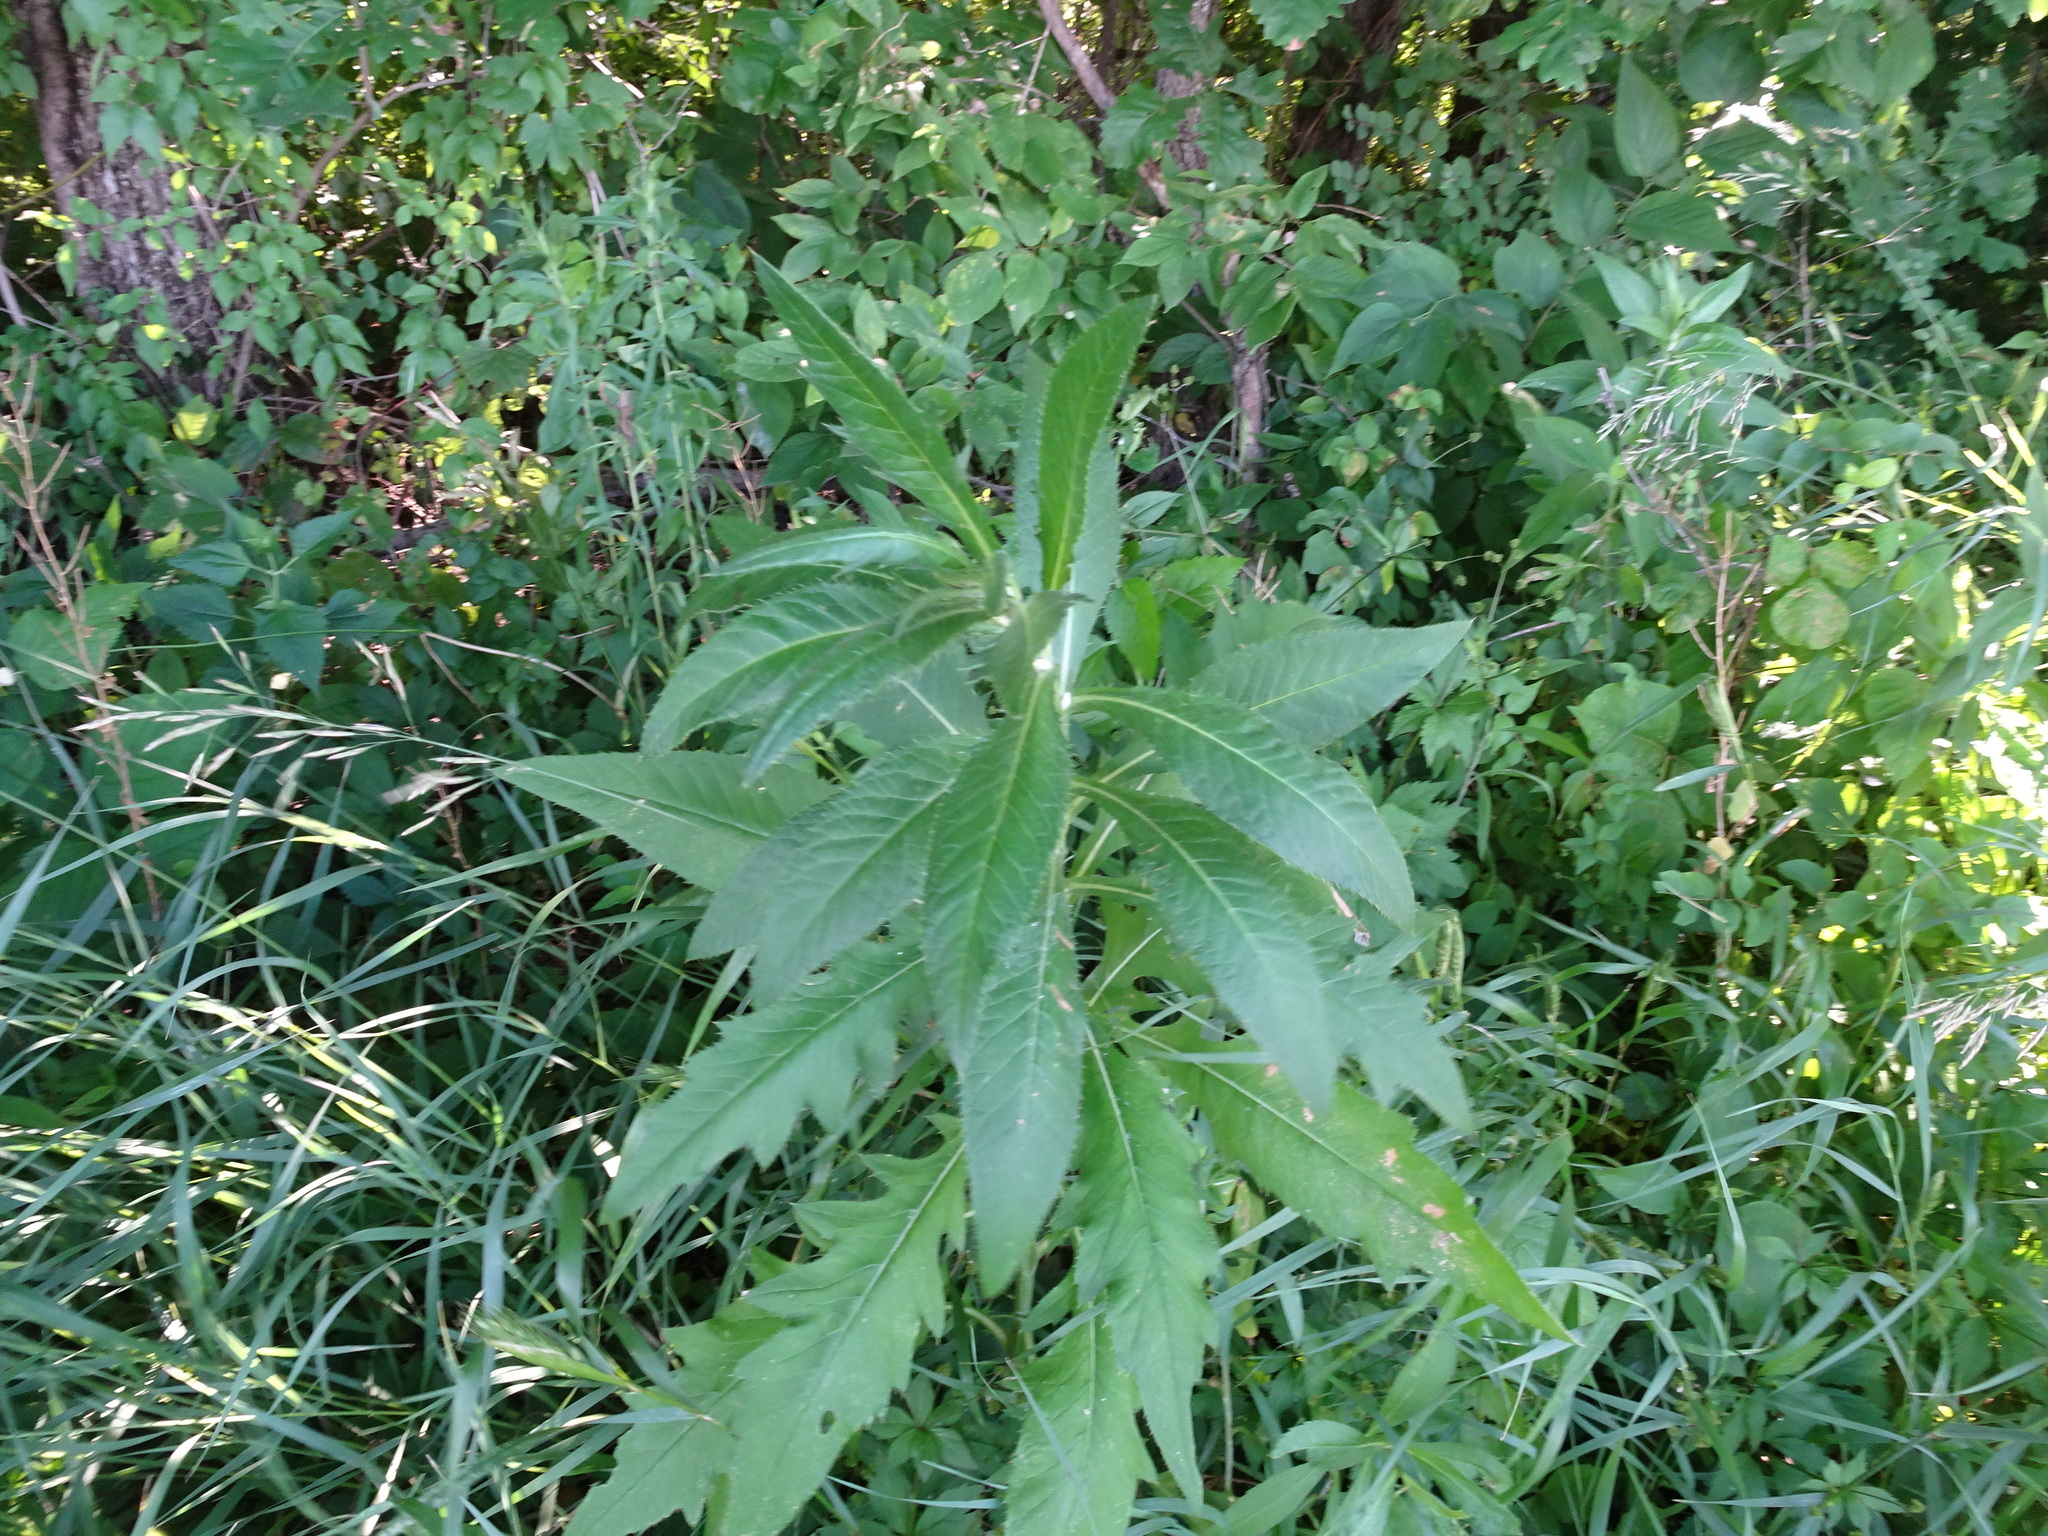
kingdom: Plantae
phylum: Tracheophyta
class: Magnoliopsida
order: Asterales
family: Asteraceae
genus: Cirsium
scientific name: Cirsium altissimum
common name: Roadside thistle
